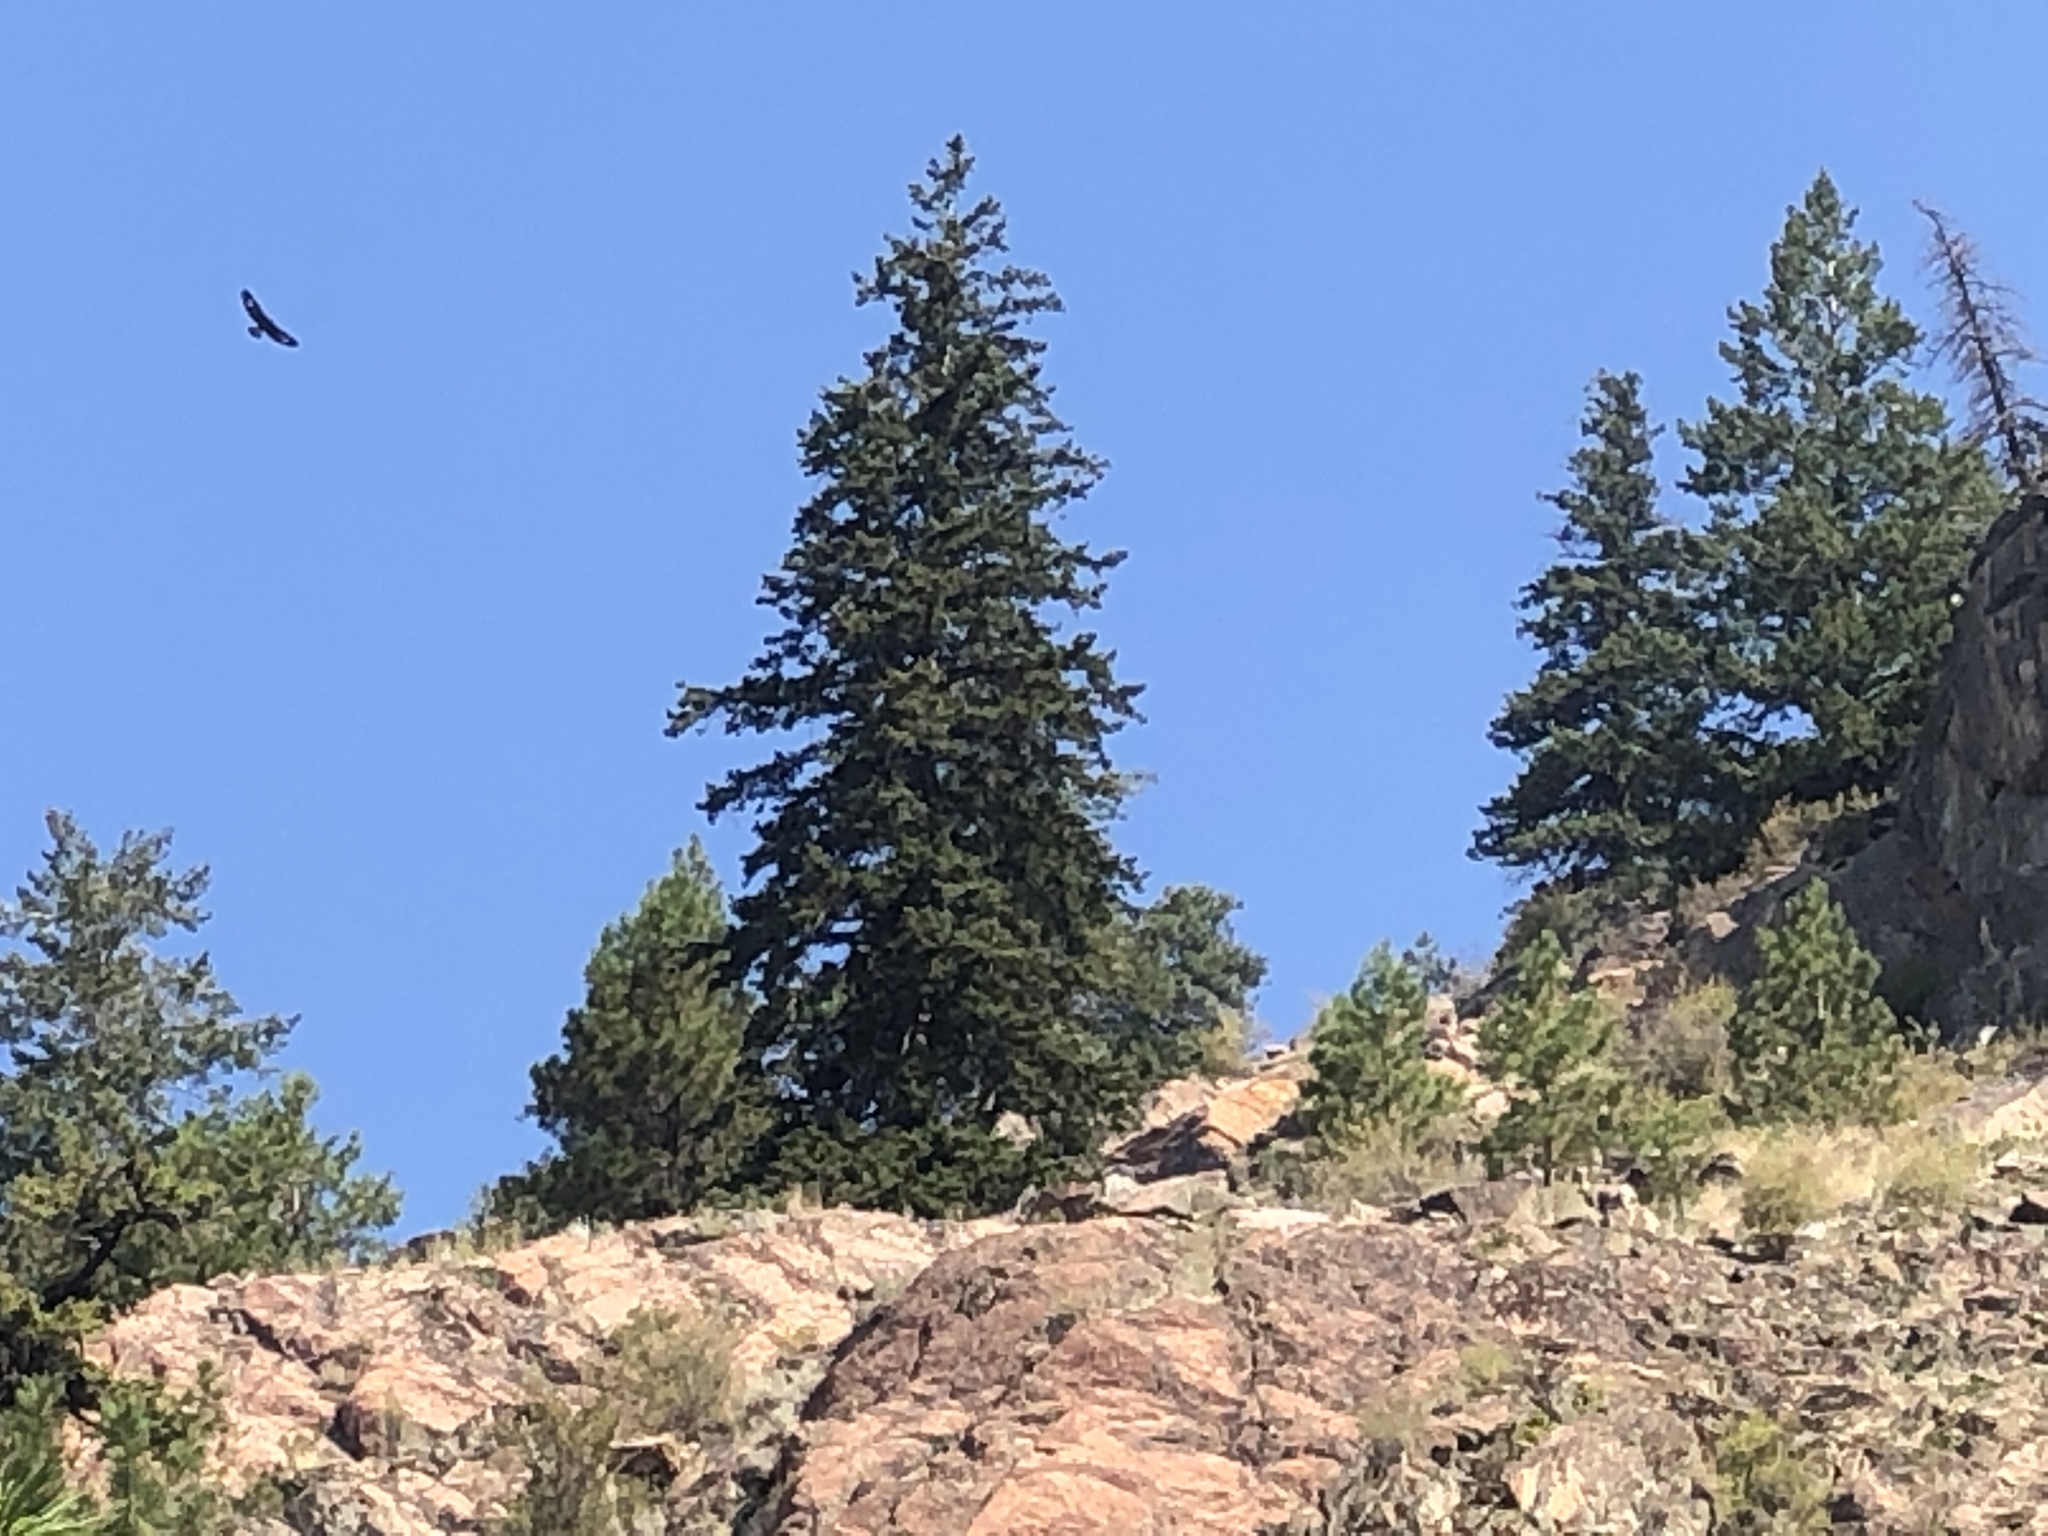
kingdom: Animalia
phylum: Chordata
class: Aves
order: Accipitriformes
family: Accipitridae
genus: Aquila
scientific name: Aquila chrysaetos
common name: Golden eagle
